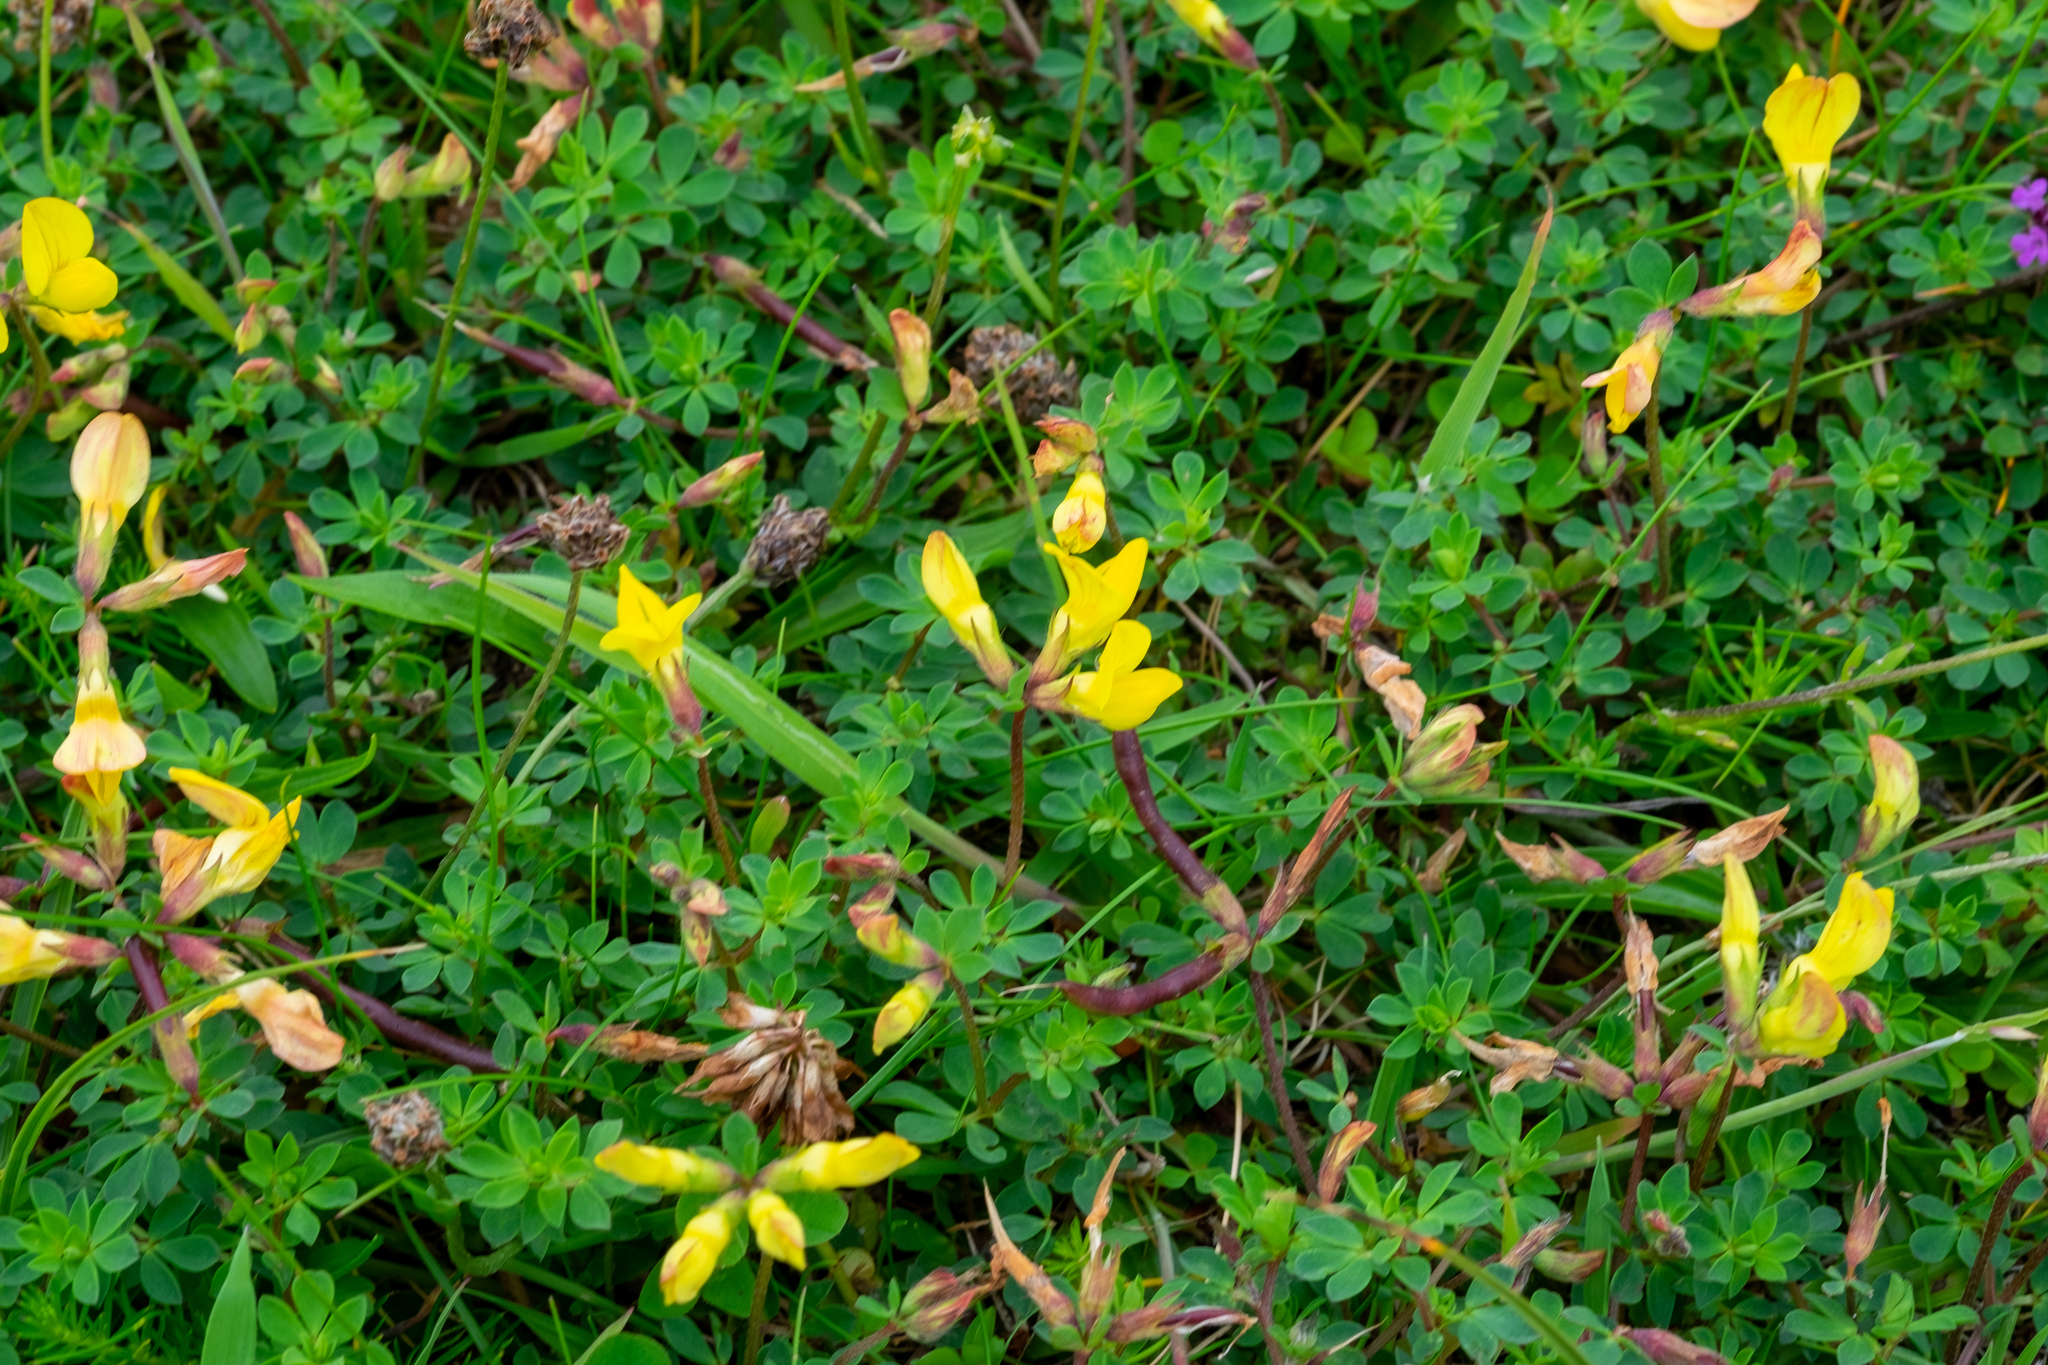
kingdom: Plantae
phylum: Tracheophyta
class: Magnoliopsida
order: Fabales
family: Fabaceae
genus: Lotus
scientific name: Lotus corniculatus
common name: Common bird's-foot-trefoil
